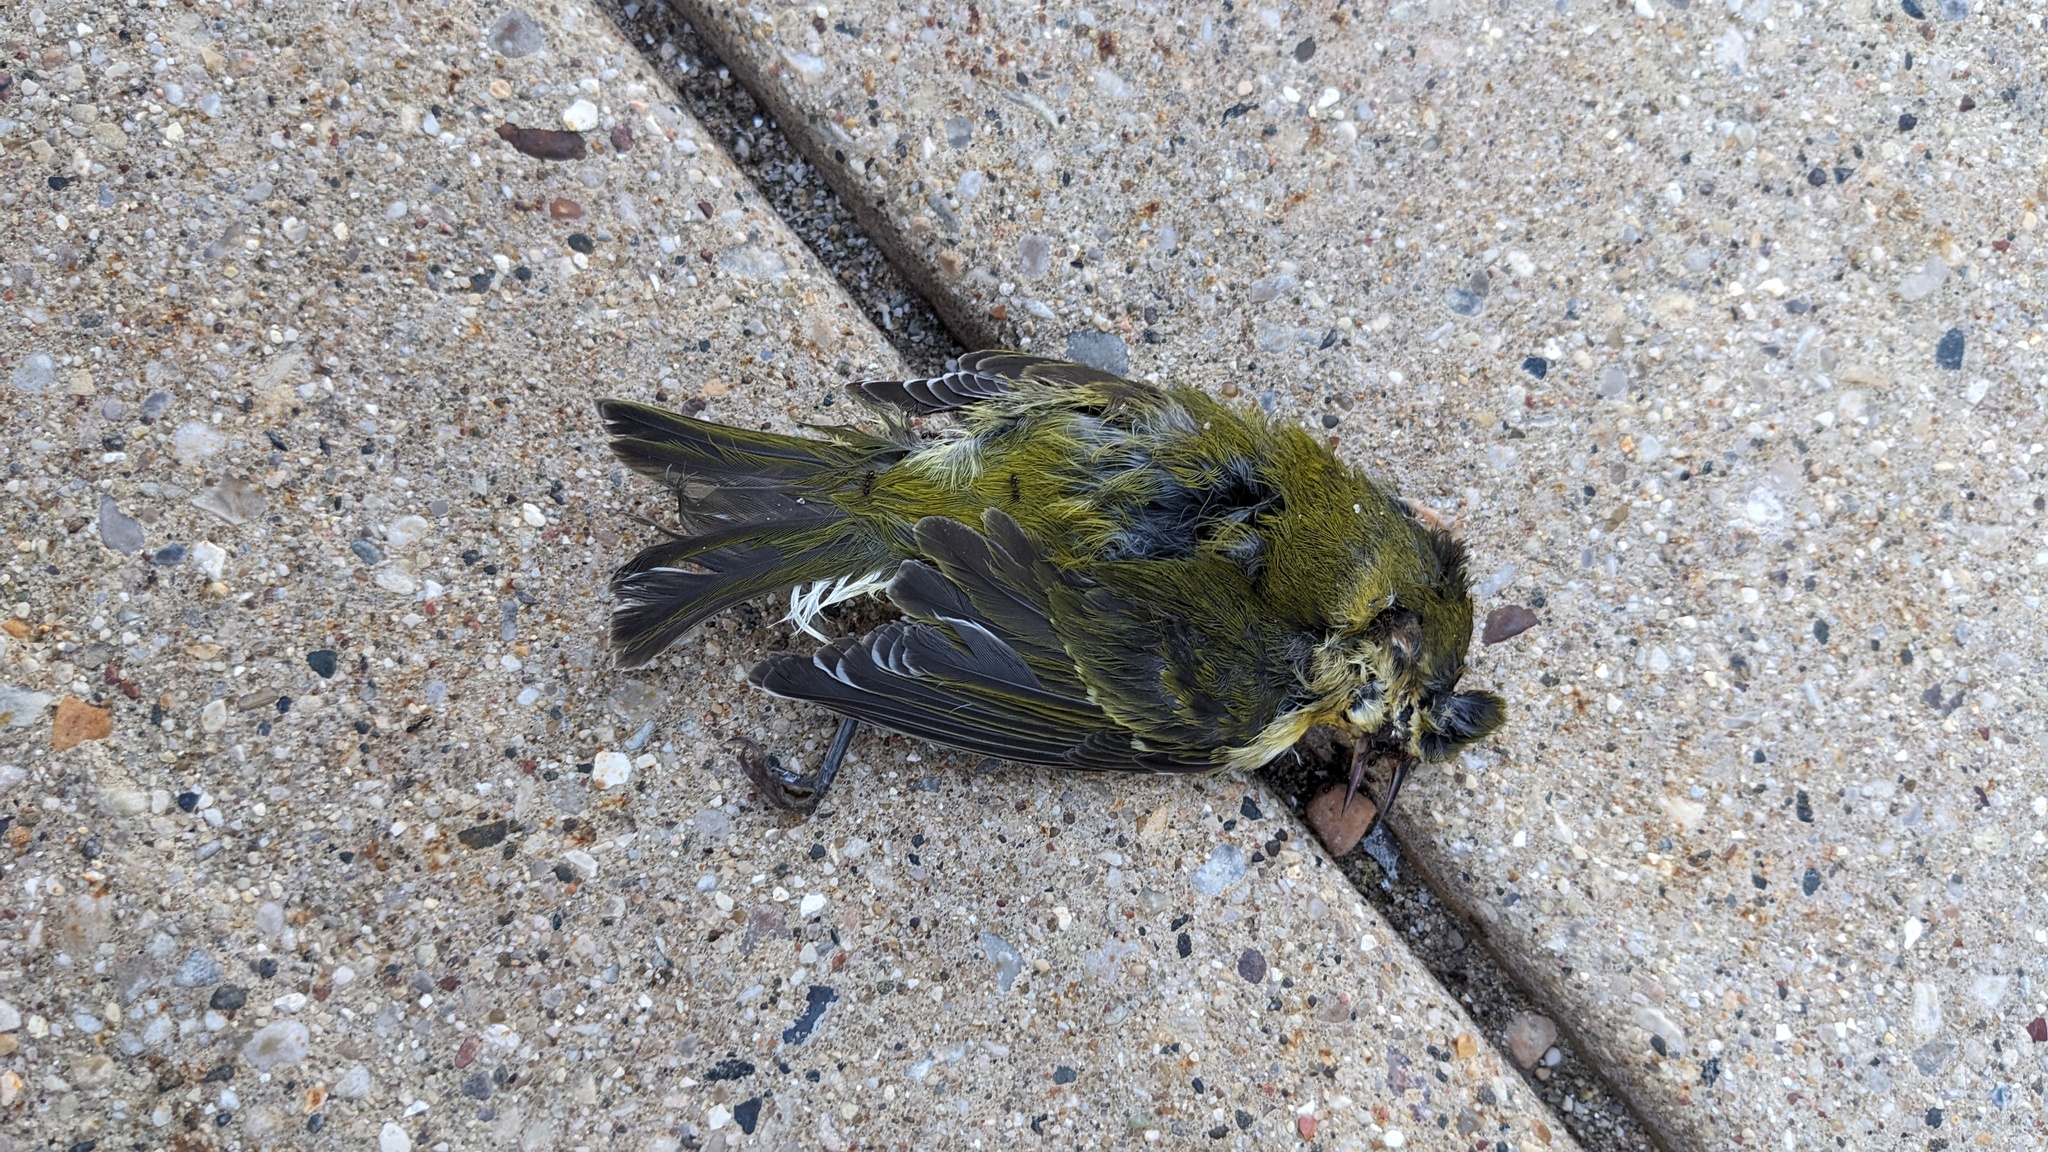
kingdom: Animalia
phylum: Chordata
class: Aves
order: Passeriformes
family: Parulidae
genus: Leiothlypis
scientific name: Leiothlypis peregrina
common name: Tennessee warbler
